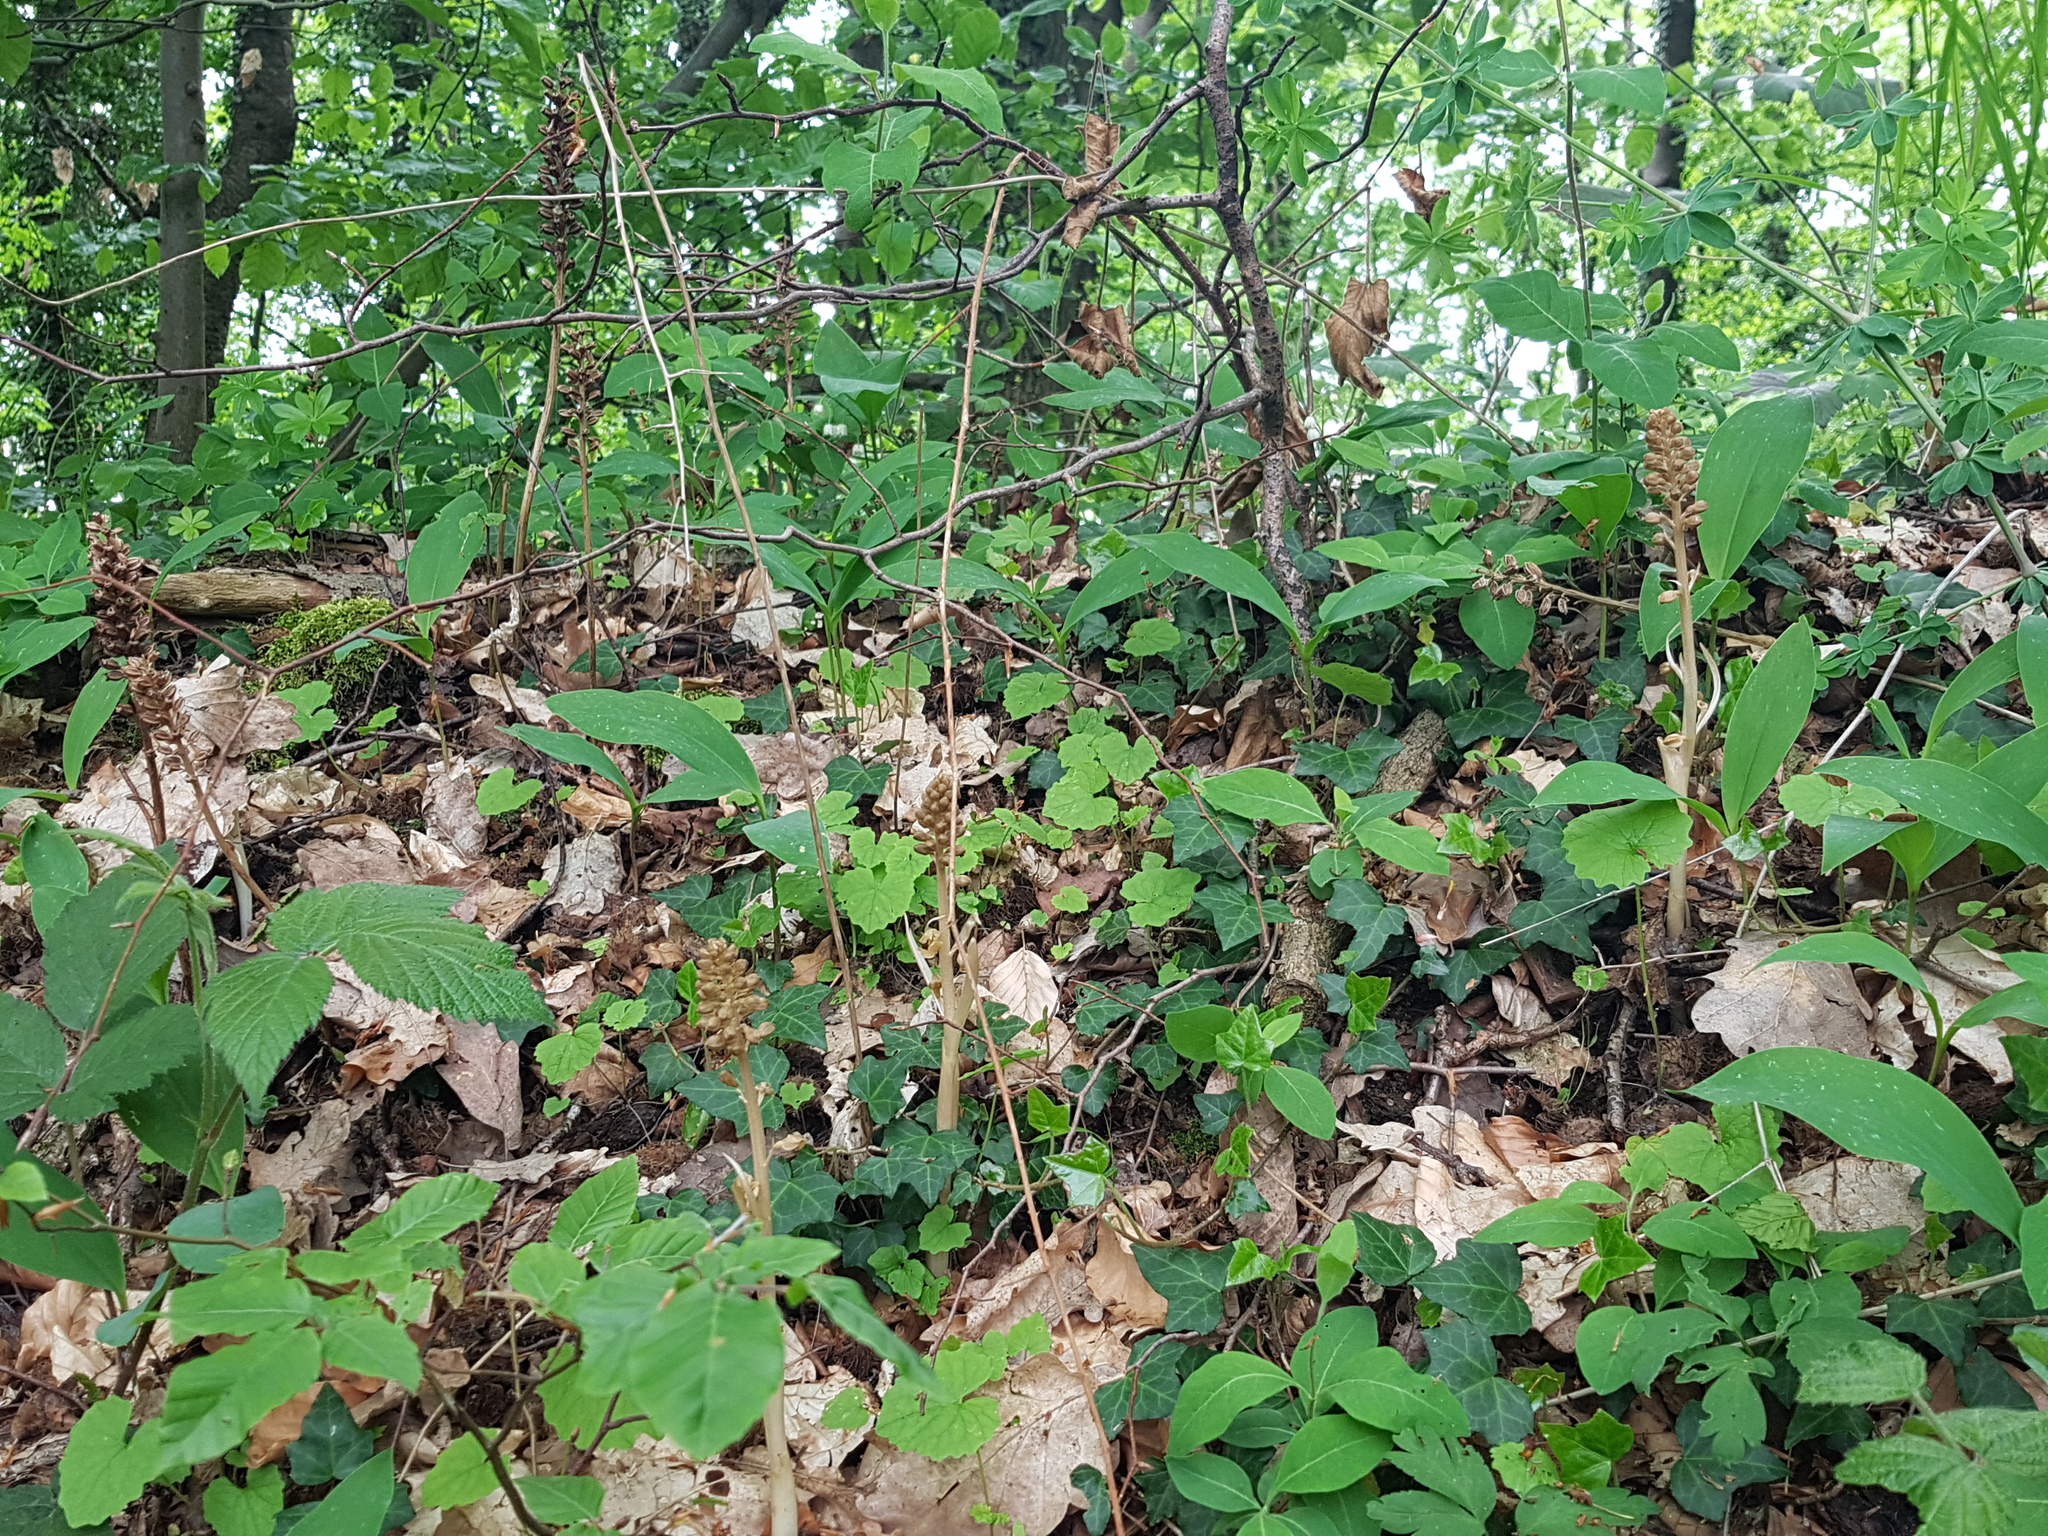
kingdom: Plantae
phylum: Tracheophyta
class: Liliopsida
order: Asparagales
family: Orchidaceae
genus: Neottia
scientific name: Neottia nidus-avis
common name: Bird's-nest orchid
